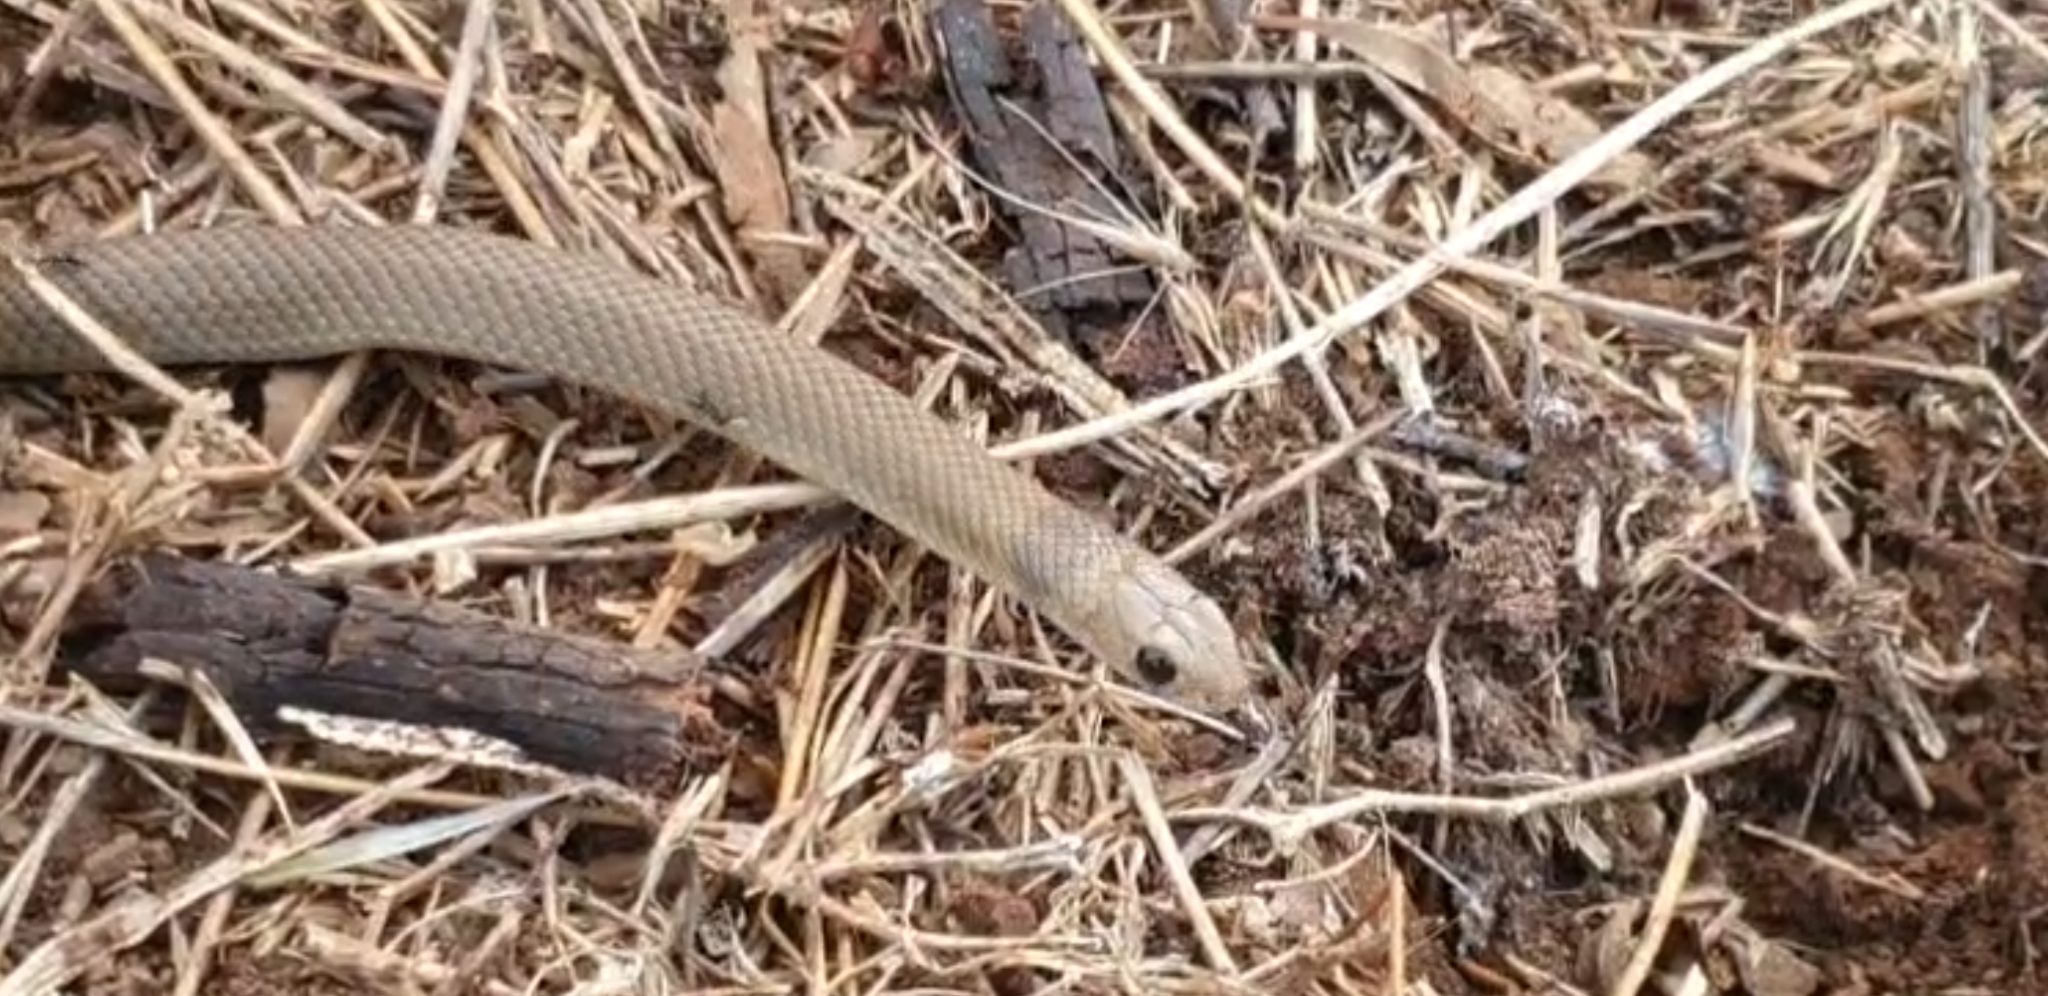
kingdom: Animalia
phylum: Chordata
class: Squamata
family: Elapidae
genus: Pseudonaja
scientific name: Pseudonaja textilis
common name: Eastern brown snake
